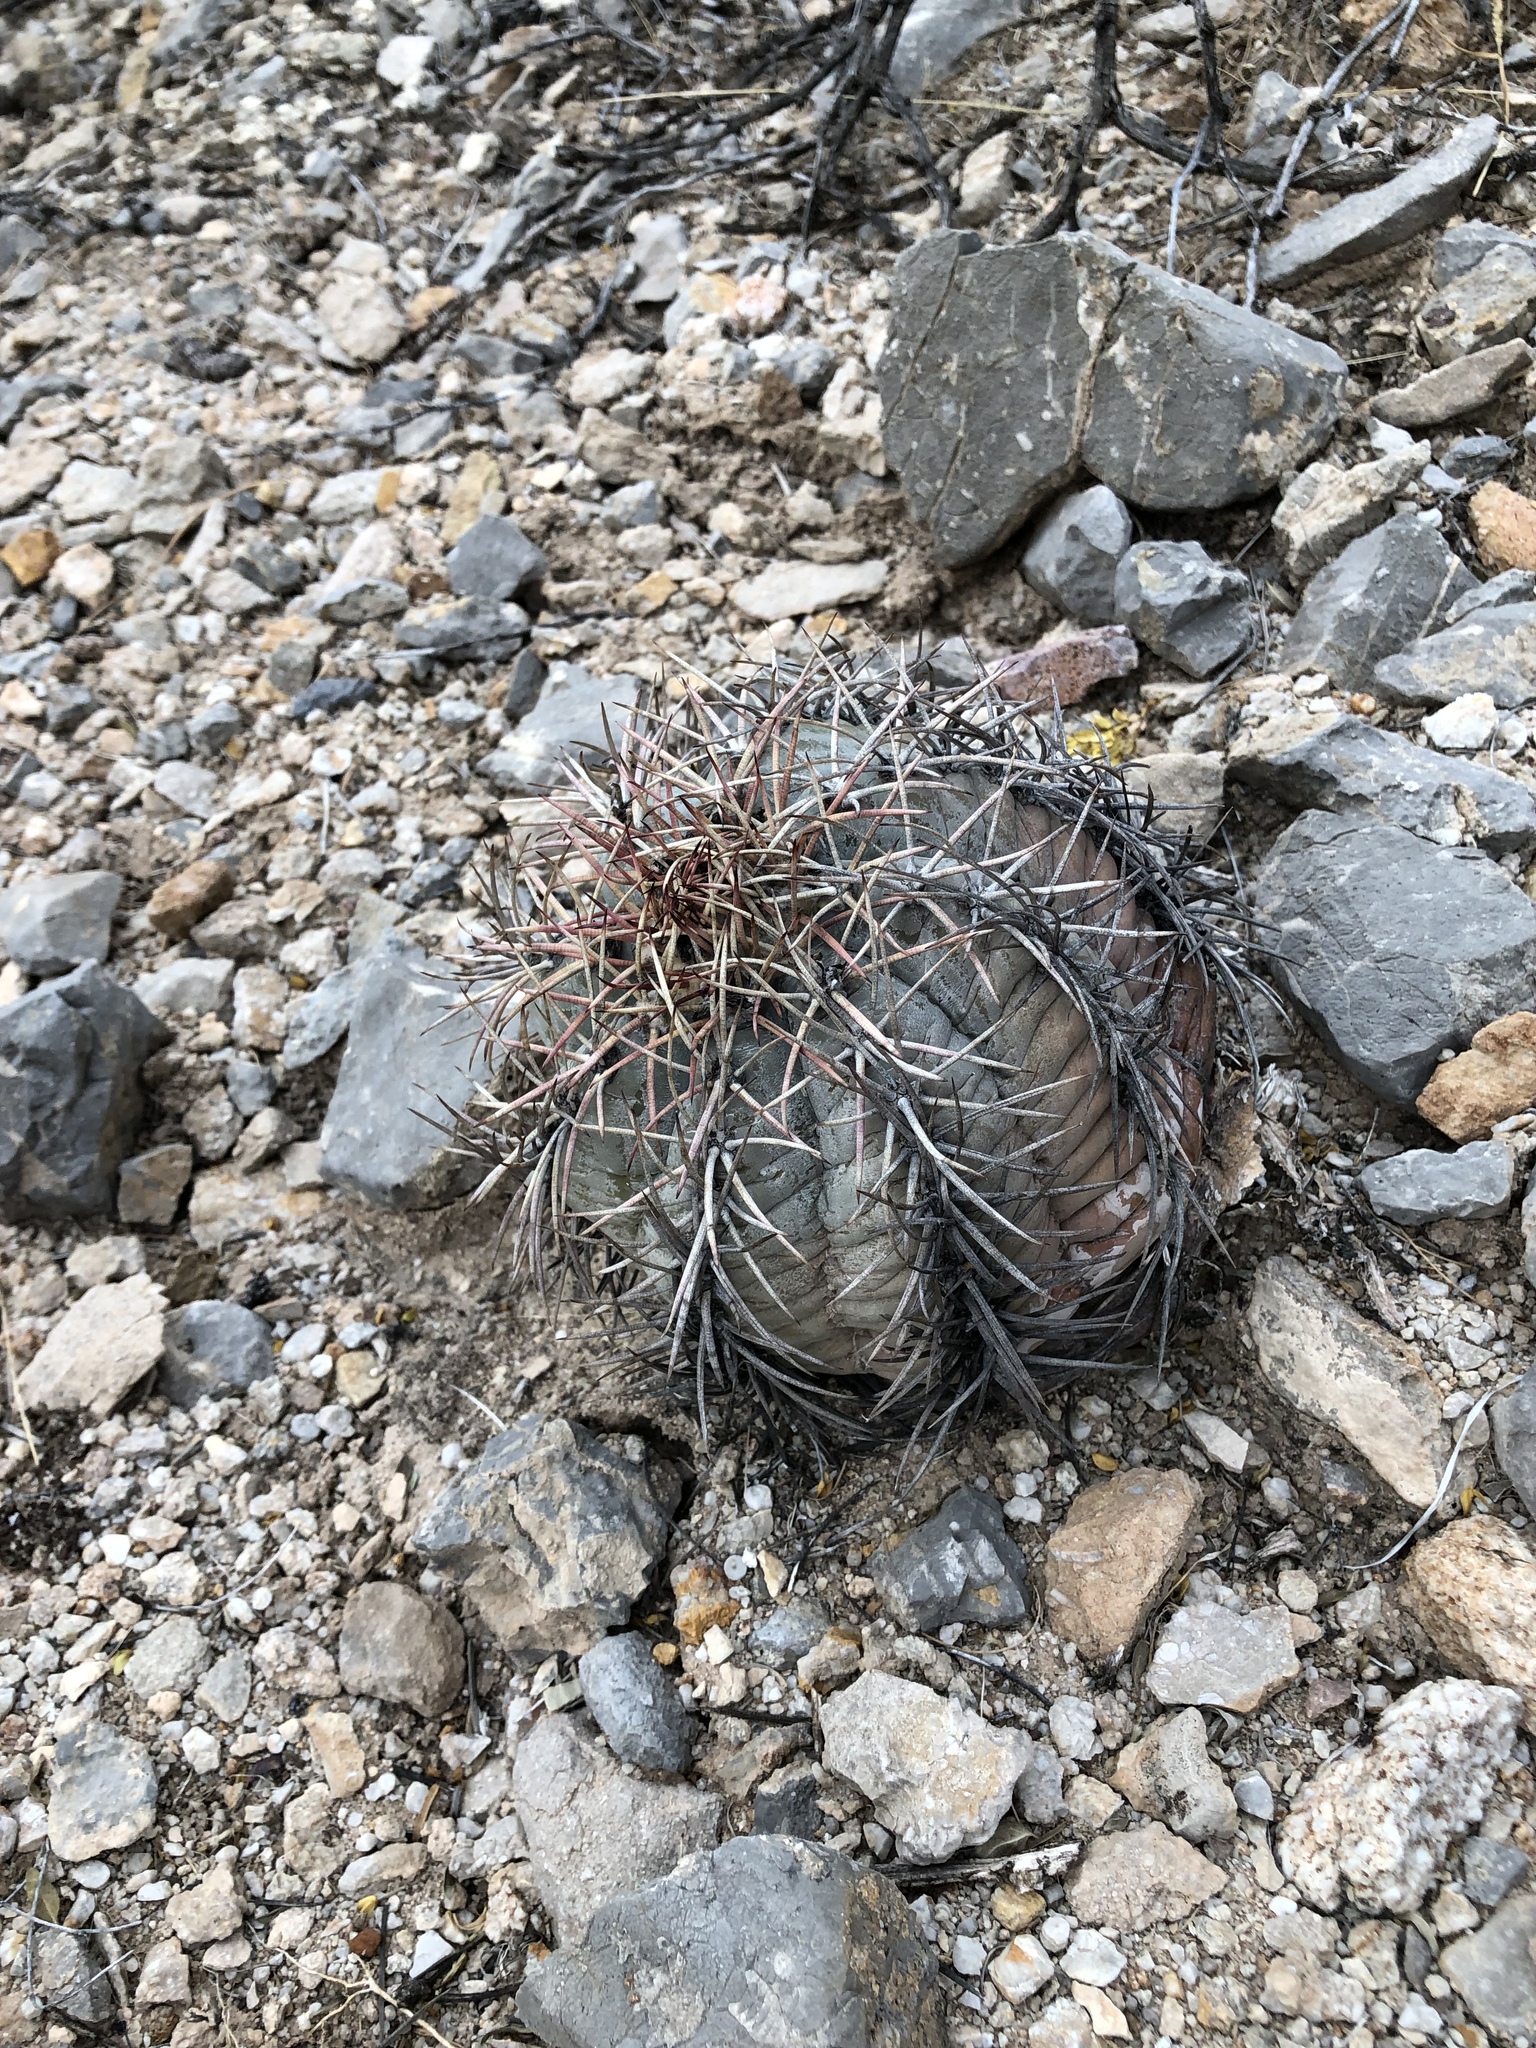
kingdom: Plantae
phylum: Tracheophyta
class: Magnoliopsida
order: Caryophyllales
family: Cactaceae
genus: Echinocactus
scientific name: Echinocactus horizonthalonius
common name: Devilshead
